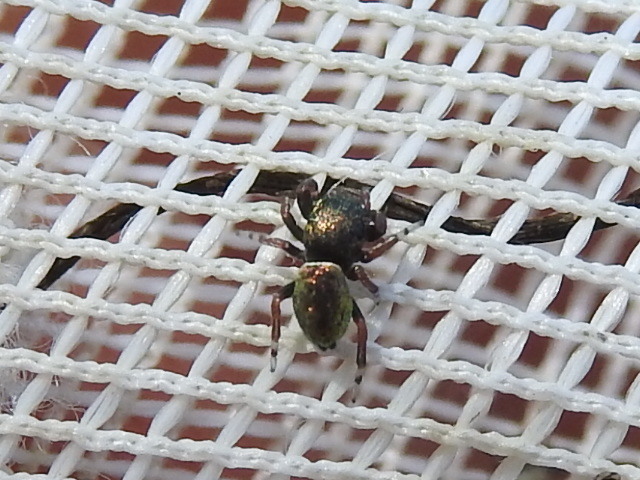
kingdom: Animalia
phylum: Arthropoda
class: Arachnida
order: Araneae
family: Salticidae
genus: Sassacus
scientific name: Sassacus papenhoei
